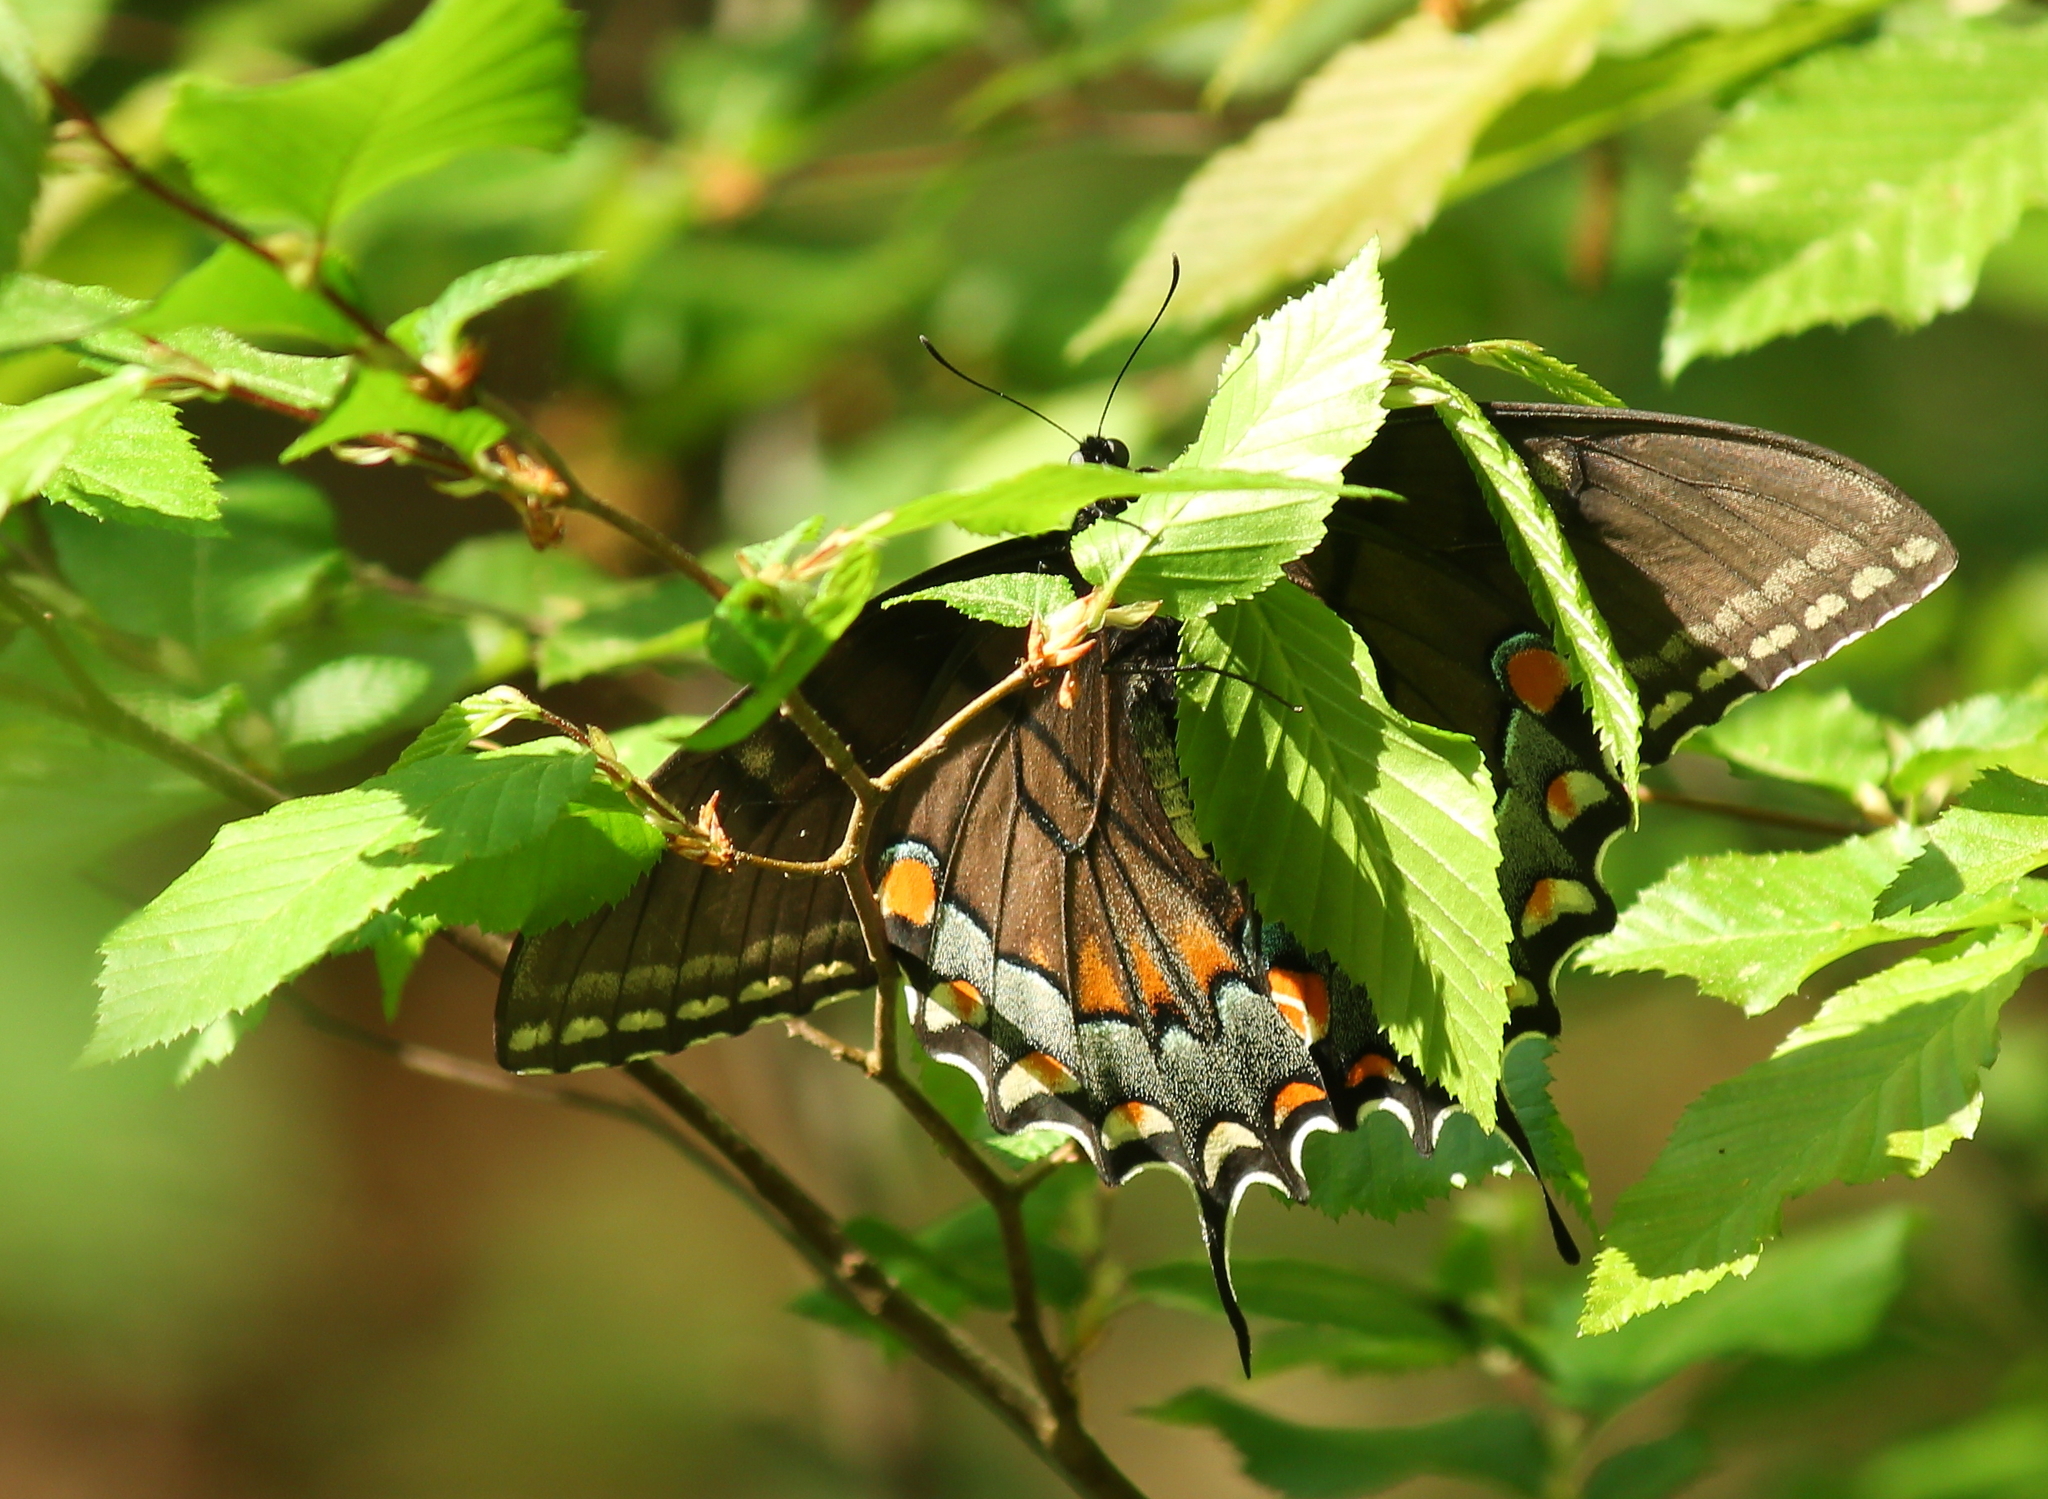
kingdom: Animalia
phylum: Arthropoda
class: Insecta
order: Lepidoptera
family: Papilionidae
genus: Papilio
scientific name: Papilio glaucus
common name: Tiger swallowtail
